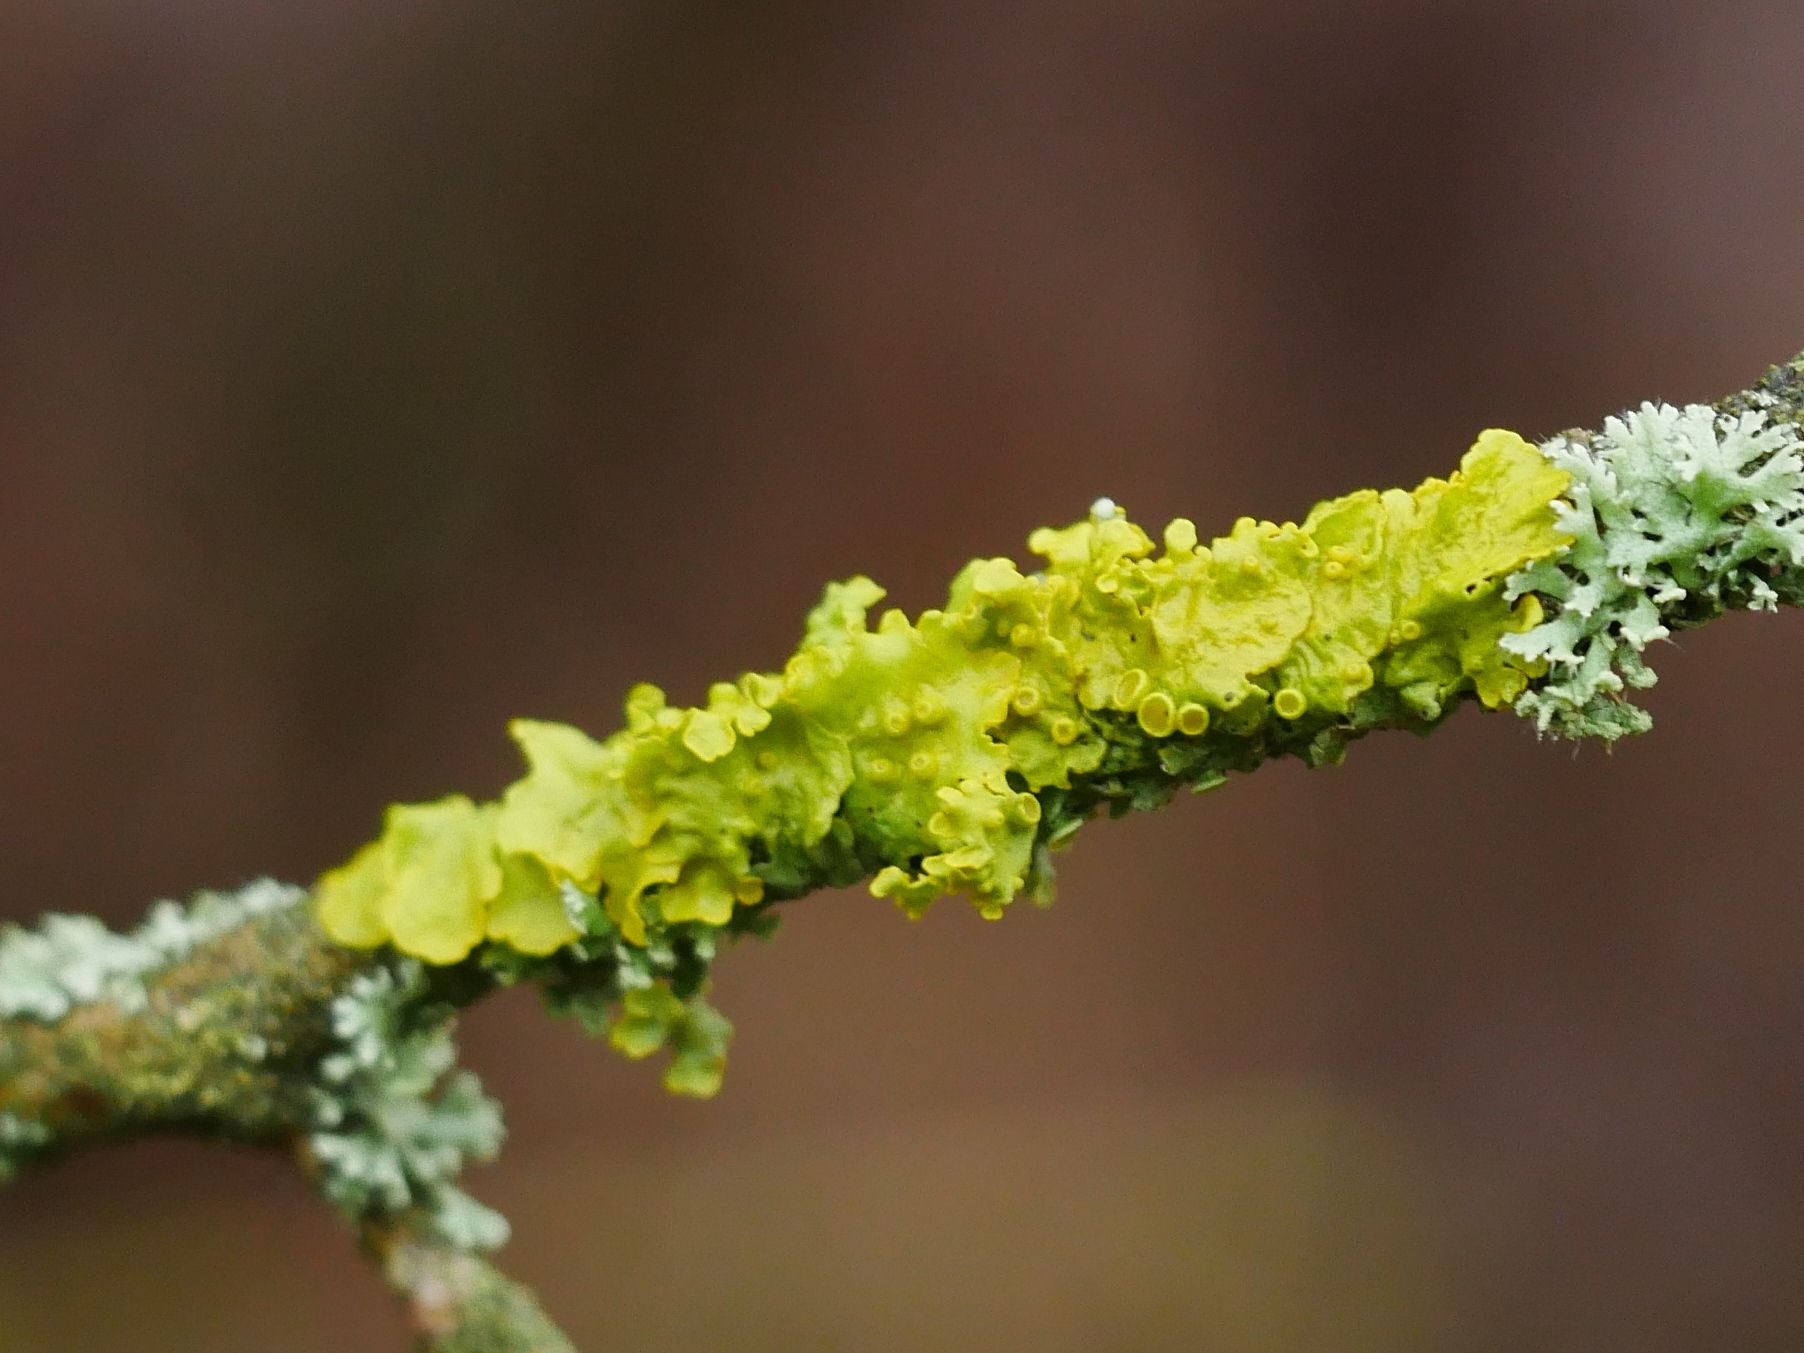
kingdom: Fungi
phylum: Ascomycota
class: Lecanoromycetes
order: Teloschistales
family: Teloschistaceae
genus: Xanthoria
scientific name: Xanthoria parietina
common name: Common orange lichen
